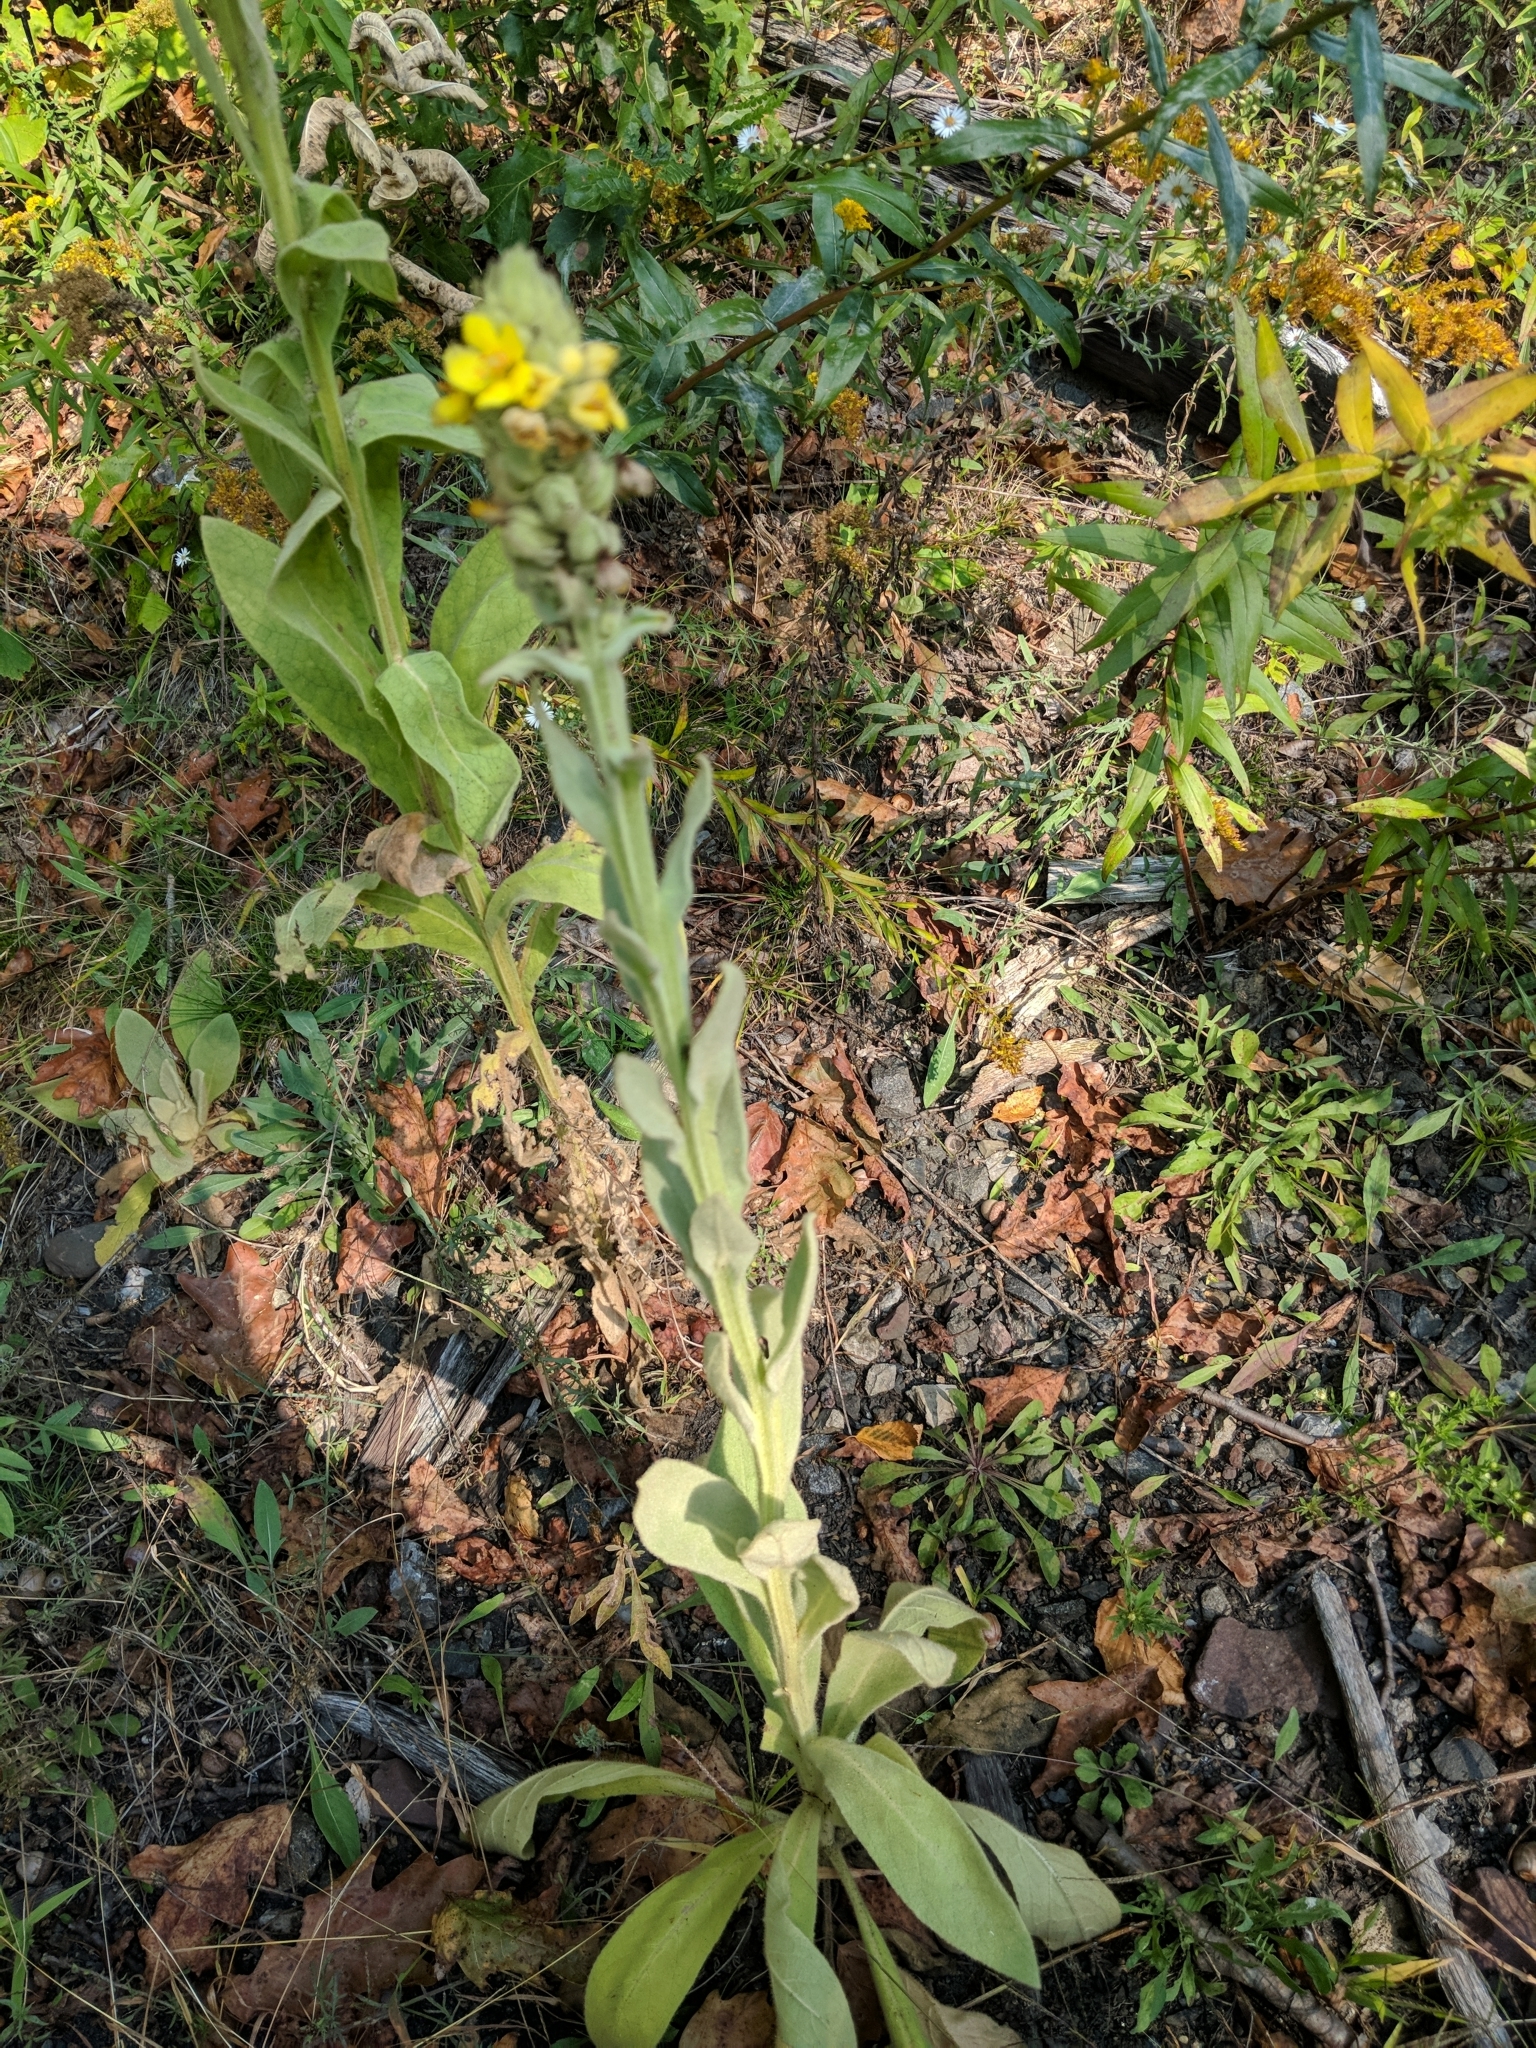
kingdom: Plantae
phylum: Tracheophyta
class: Magnoliopsida
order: Lamiales
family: Scrophulariaceae
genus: Verbascum
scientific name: Verbascum thapsus
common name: Common mullein
